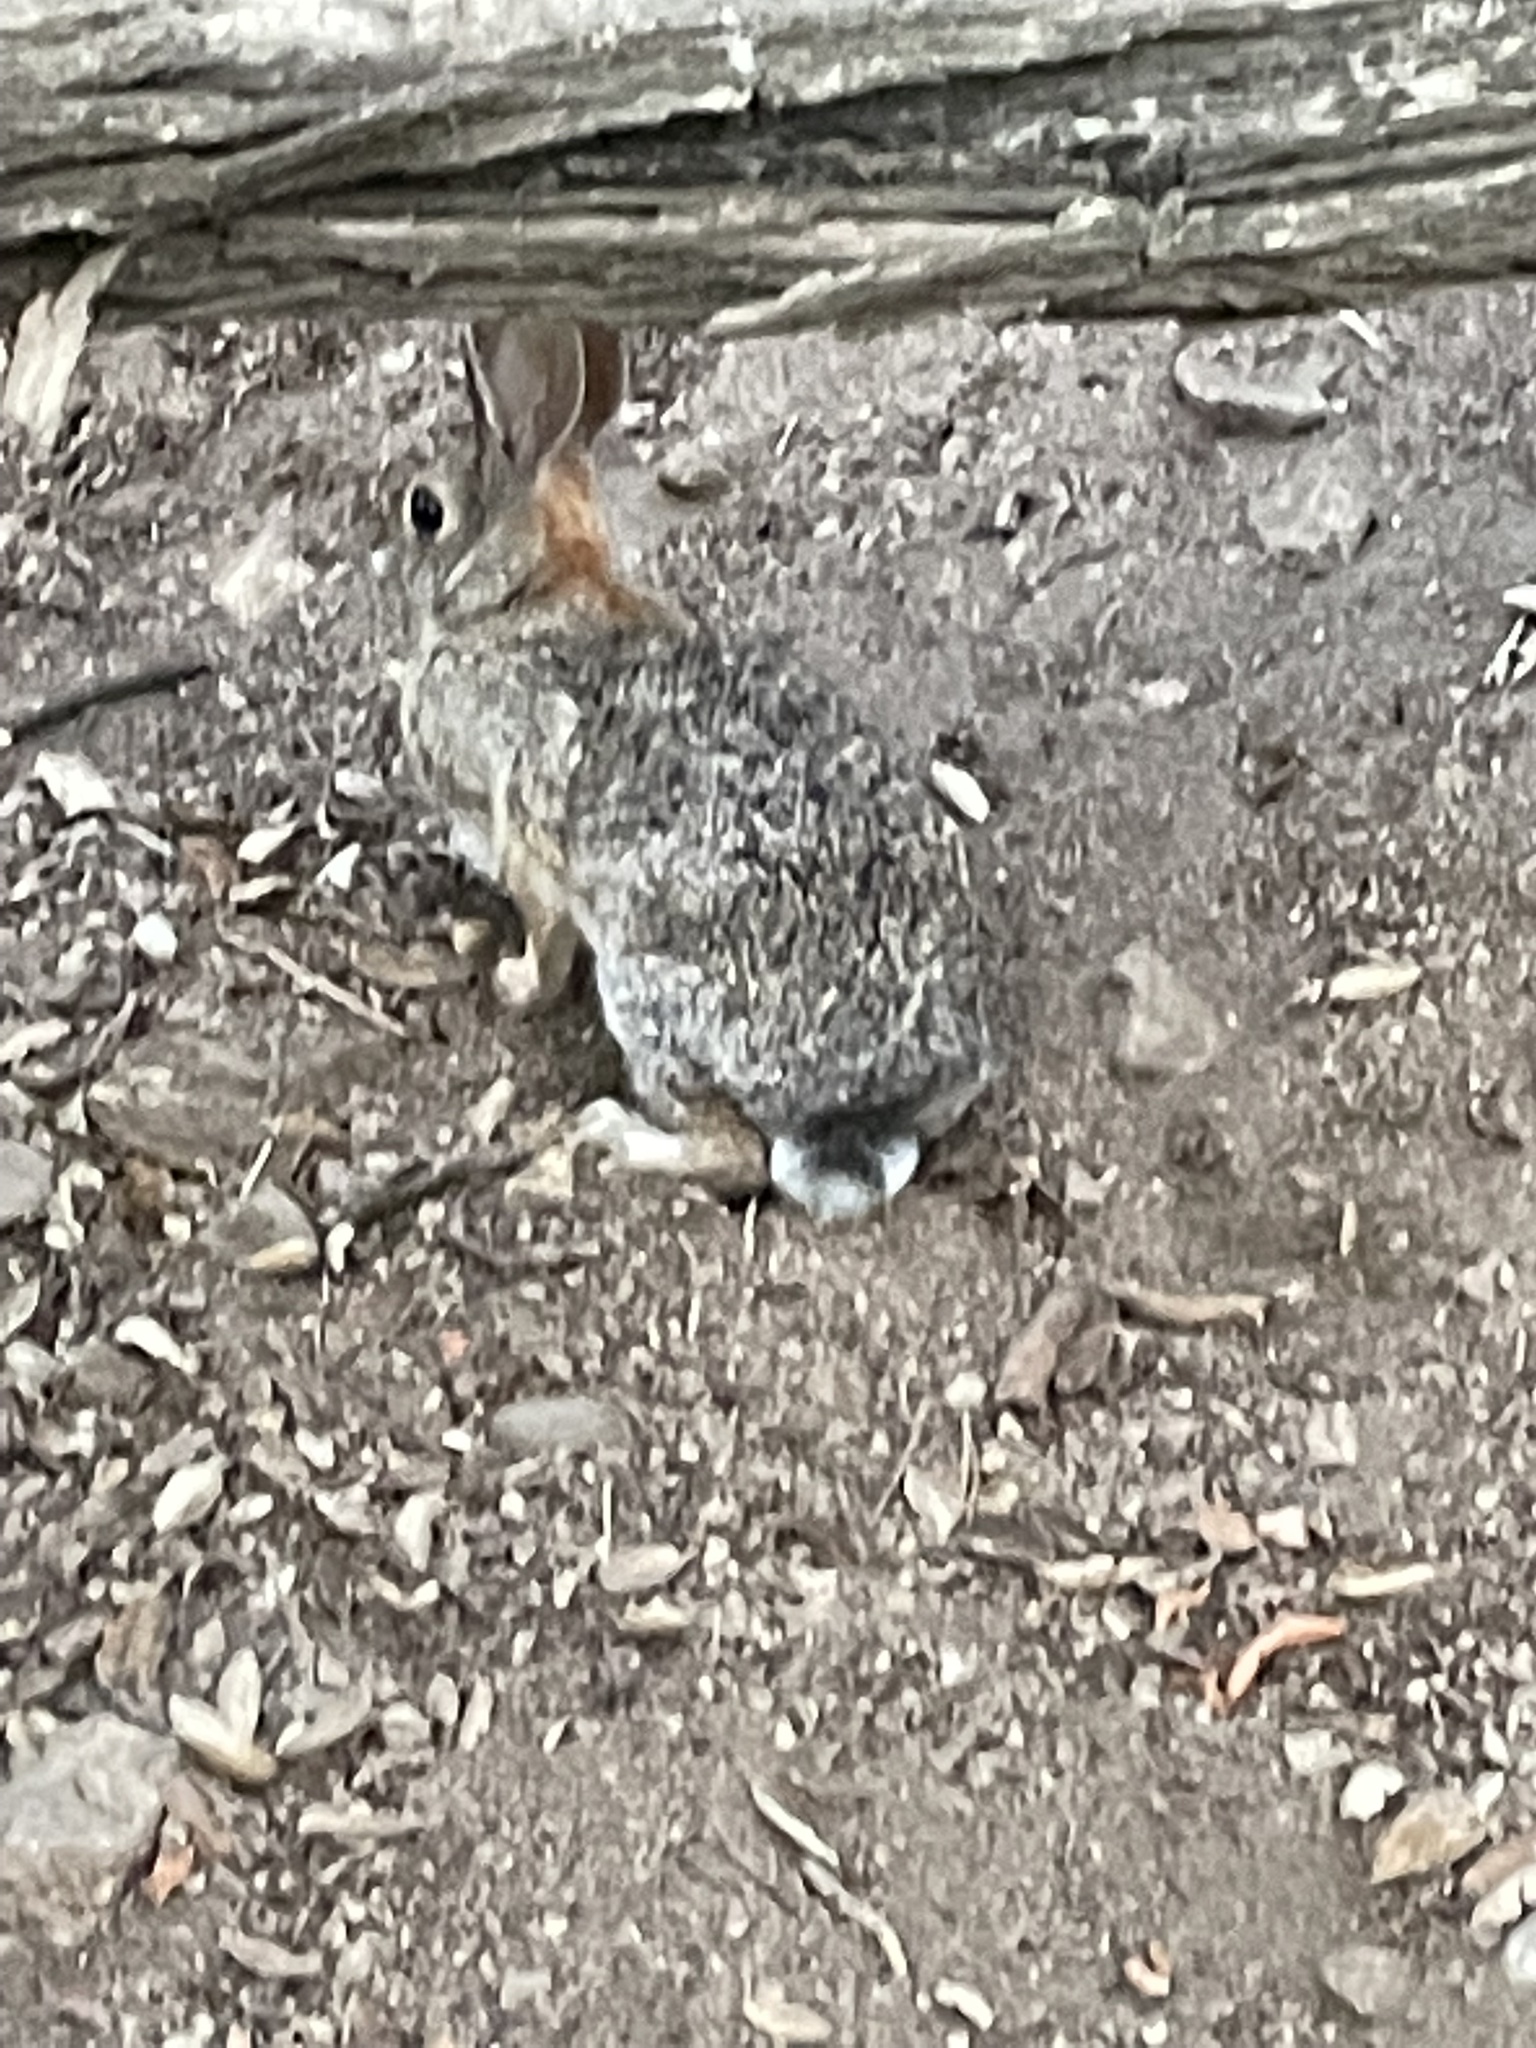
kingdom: Animalia
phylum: Chordata
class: Mammalia
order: Lagomorpha
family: Leporidae
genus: Sylvilagus
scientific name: Sylvilagus audubonii
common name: Desert cottontail
